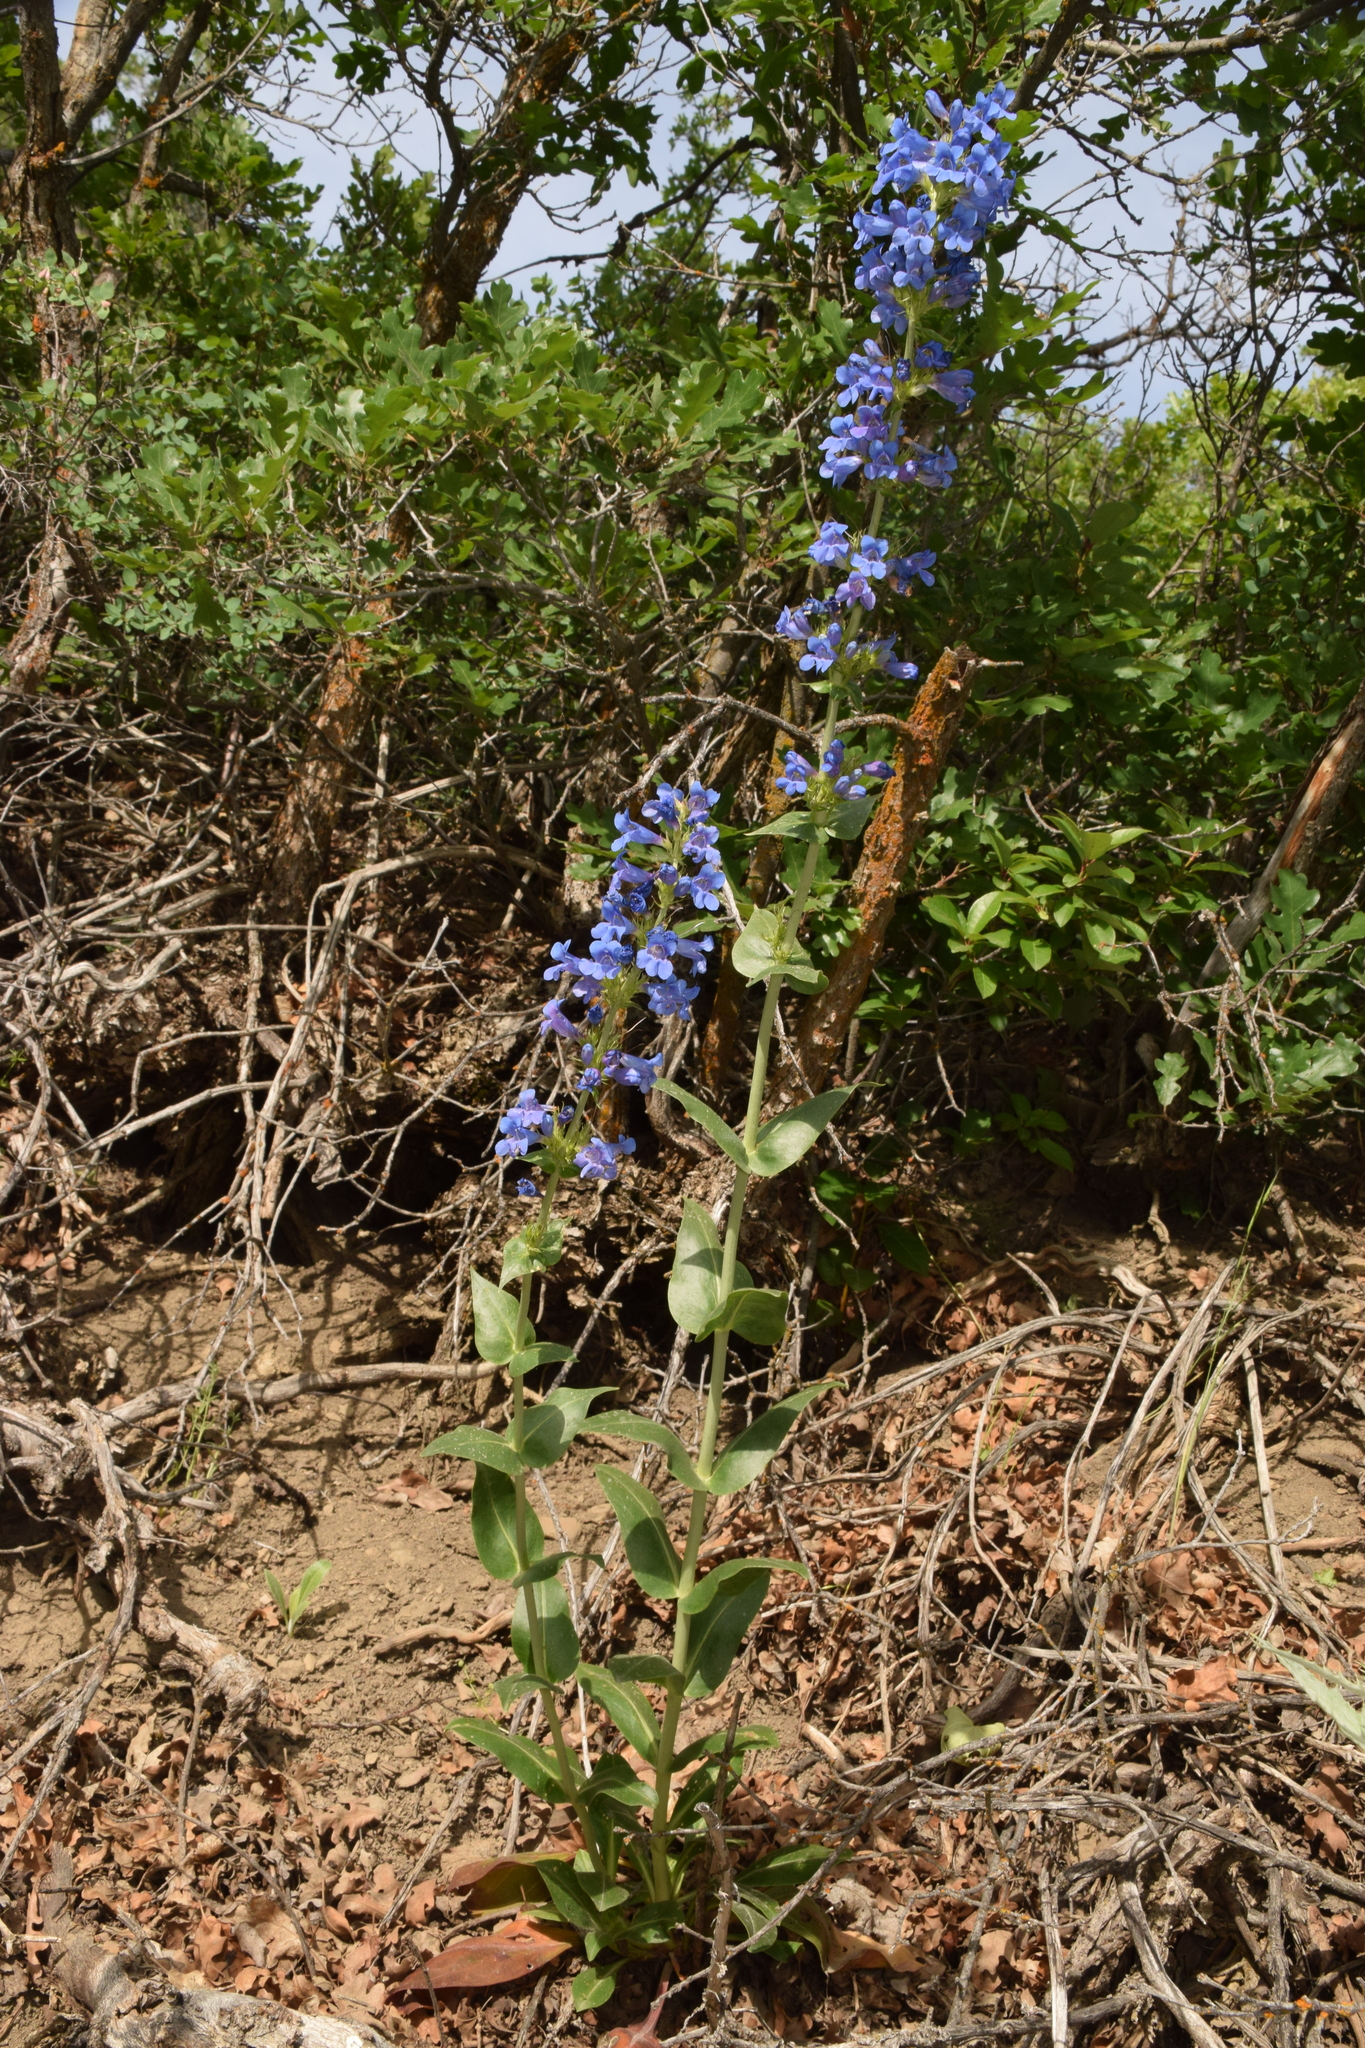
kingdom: Plantae
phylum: Tracheophyta
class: Magnoliopsida
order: Lamiales
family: Plantaginaceae
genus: Penstemon
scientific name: Penstemon cyananthus
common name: Wasatch penstemon
